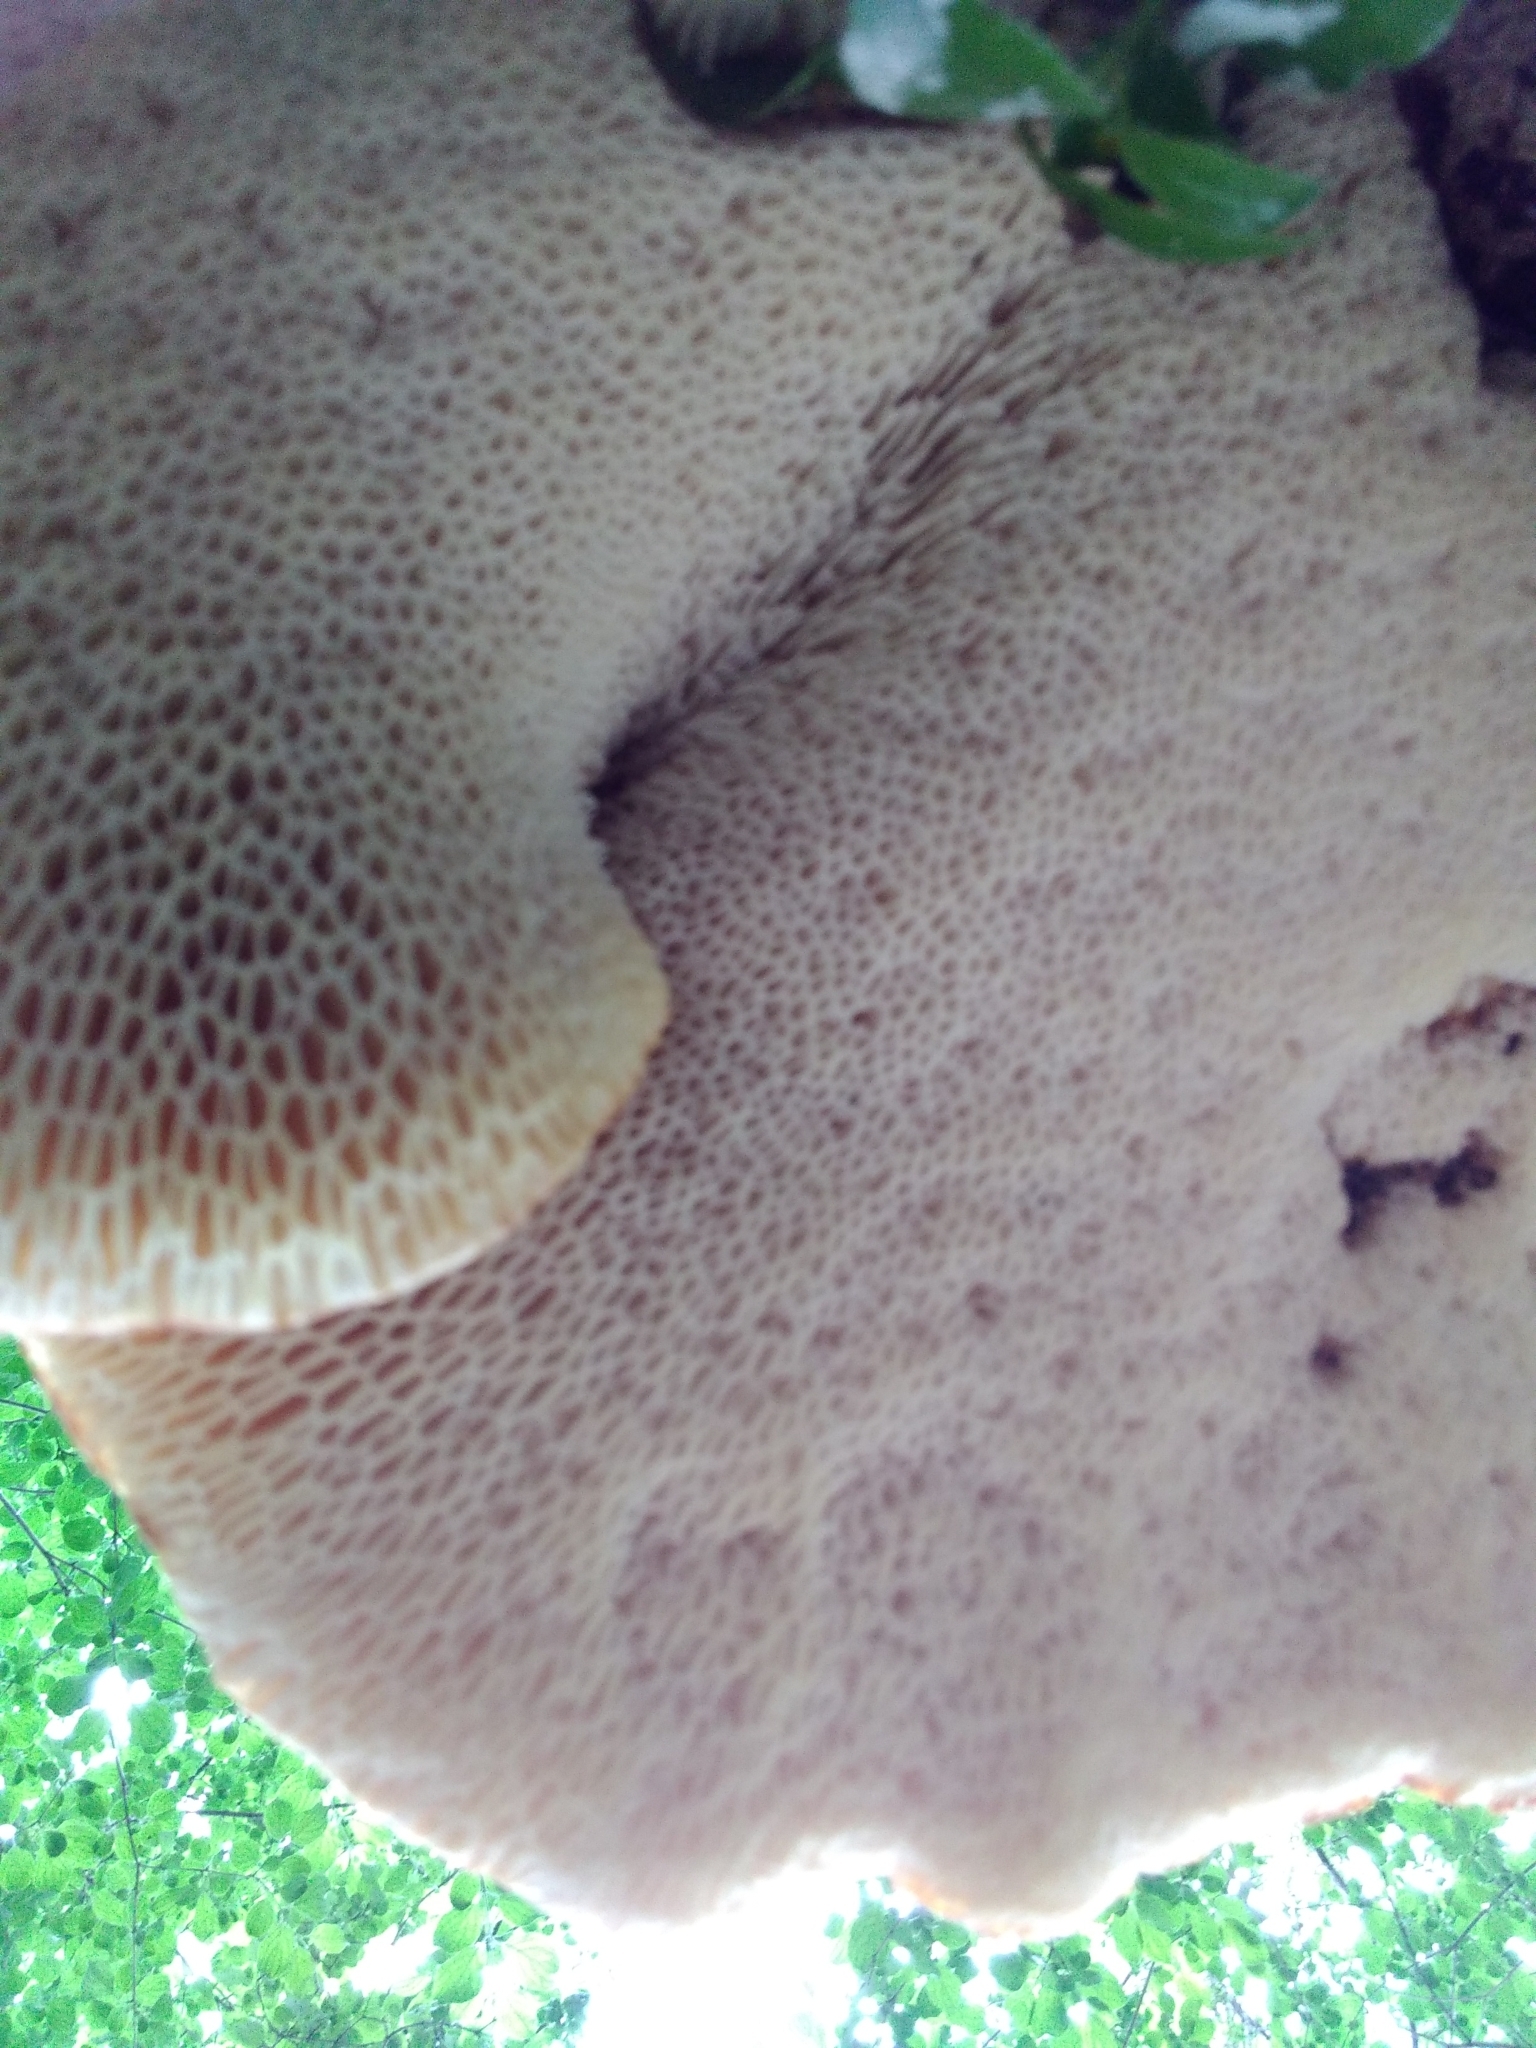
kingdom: Fungi
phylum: Basidiomycota
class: Agaricomycetes
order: Polyporales
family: Polyporaceae
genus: Cerioporus
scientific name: Cerioporus squamosus
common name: Dryad's saddle
